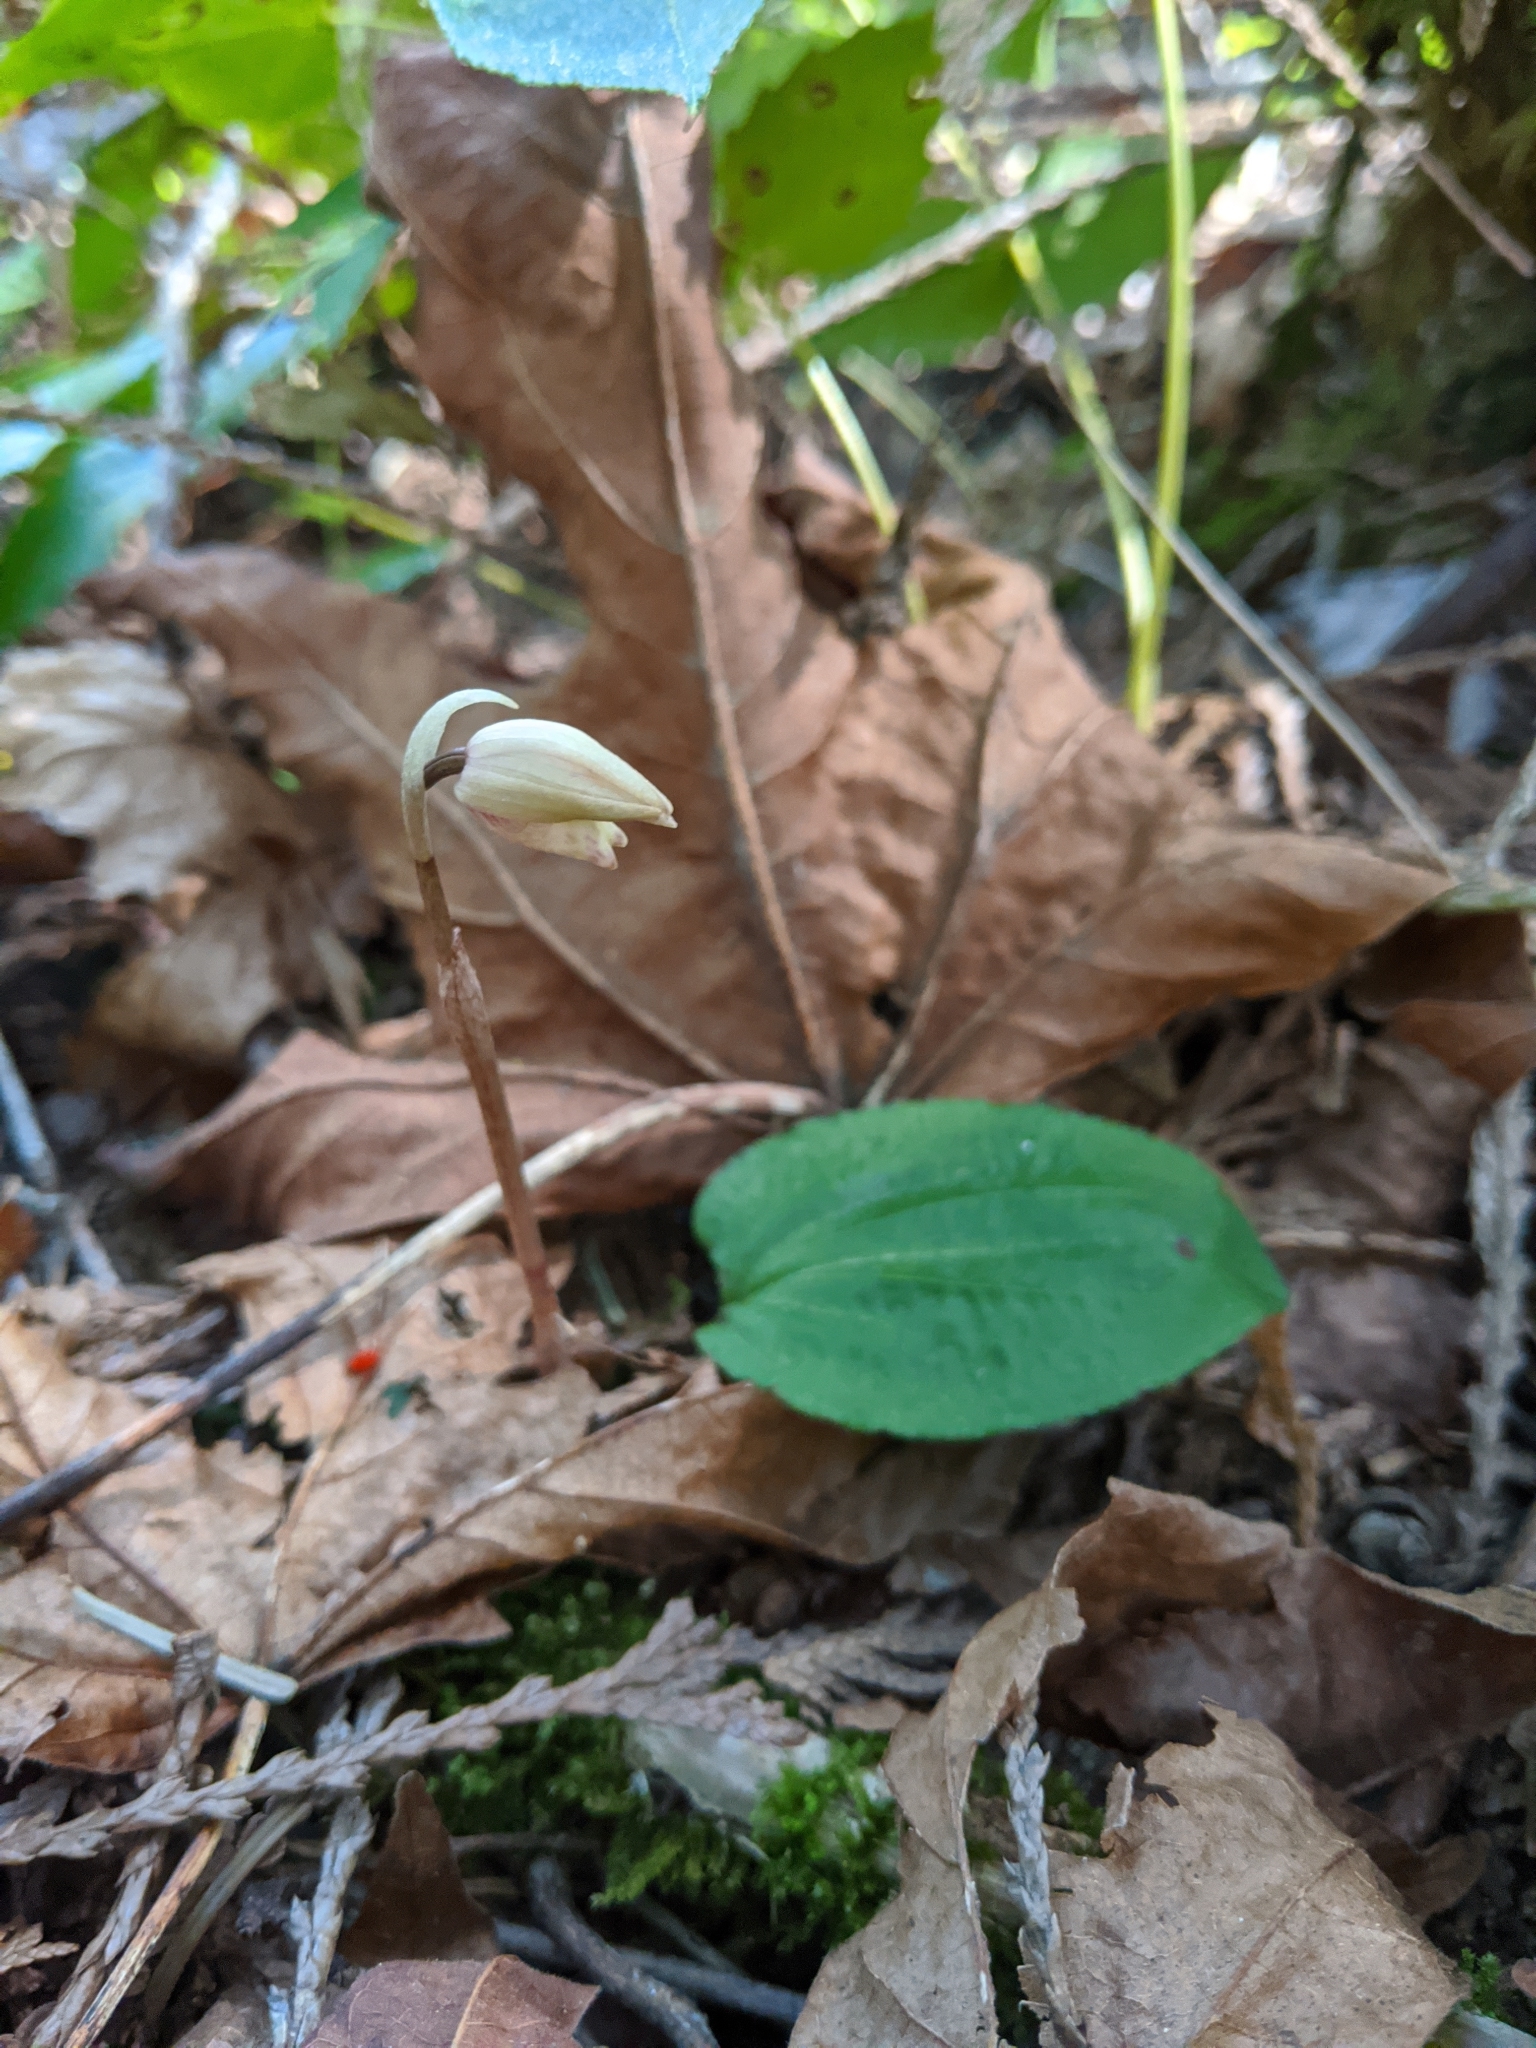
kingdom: Plantae
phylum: Tracheophyta
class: Liliopsida
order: Asparagales
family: Orchidaceae
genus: Calypso
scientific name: Calypso bulbosa
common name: Calypso
